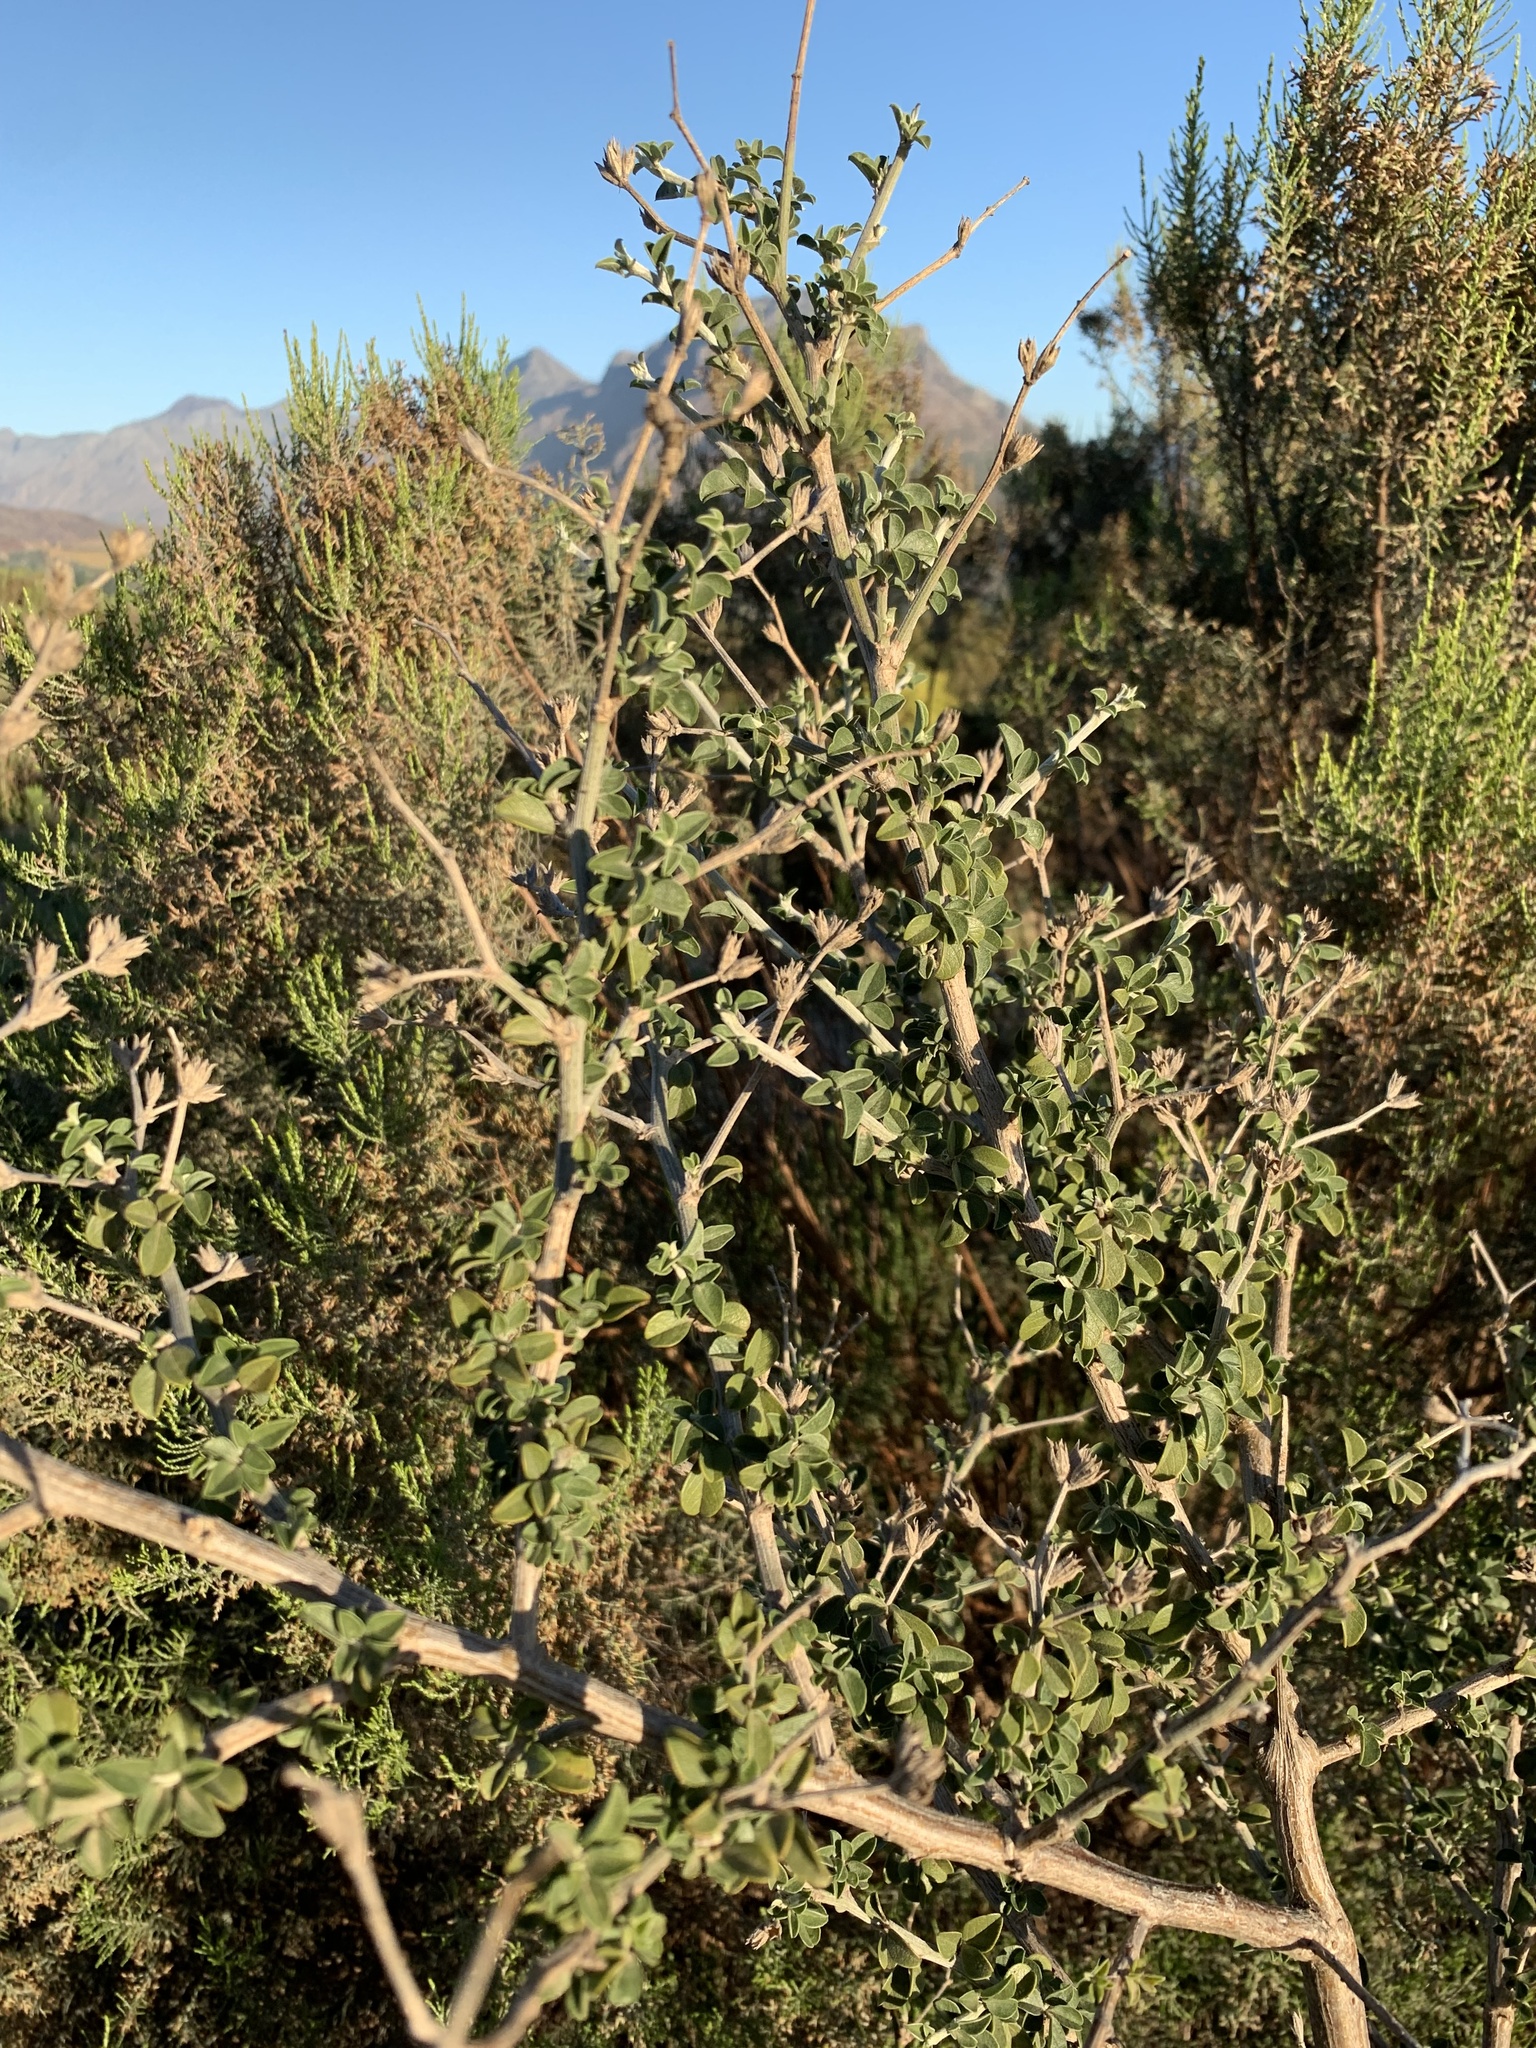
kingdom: Plantae
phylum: Tracheophyta
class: Magnoliopsida
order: Fabales
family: Fabaceae
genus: Psoralea
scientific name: Psoralea hirta
